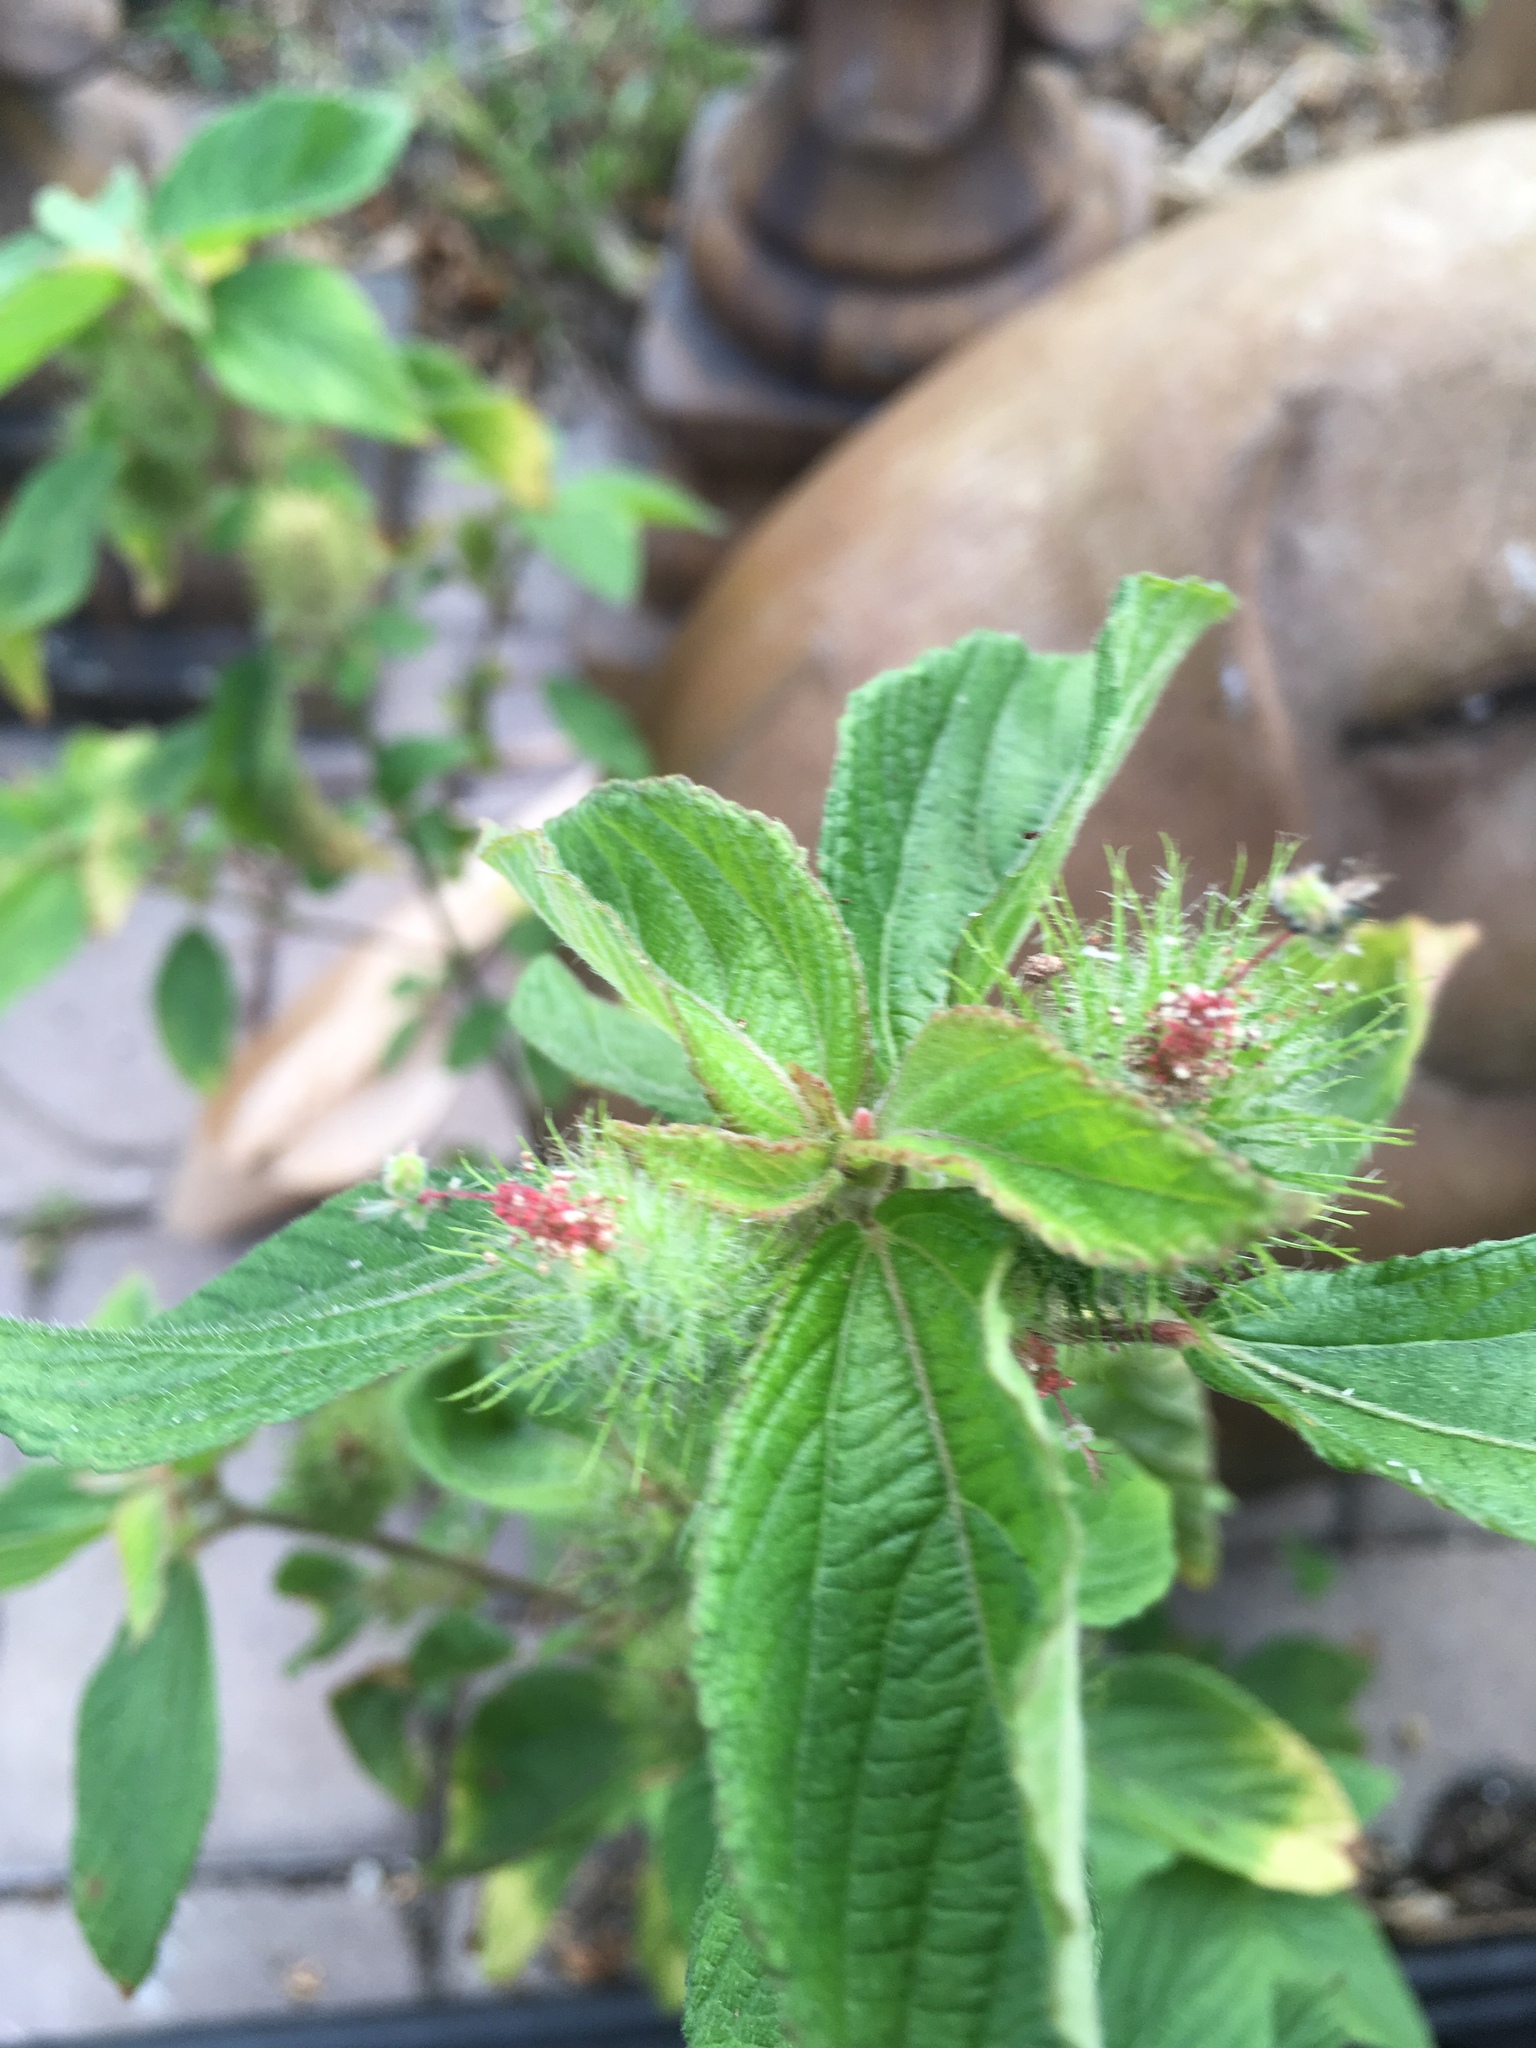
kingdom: Plantae
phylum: Tracheophyta
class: Magnoliopsida
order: Malpighiales
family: Euphorbiaceae
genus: Acalypha
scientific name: Acalypha arvensis
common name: Field copperleaf
